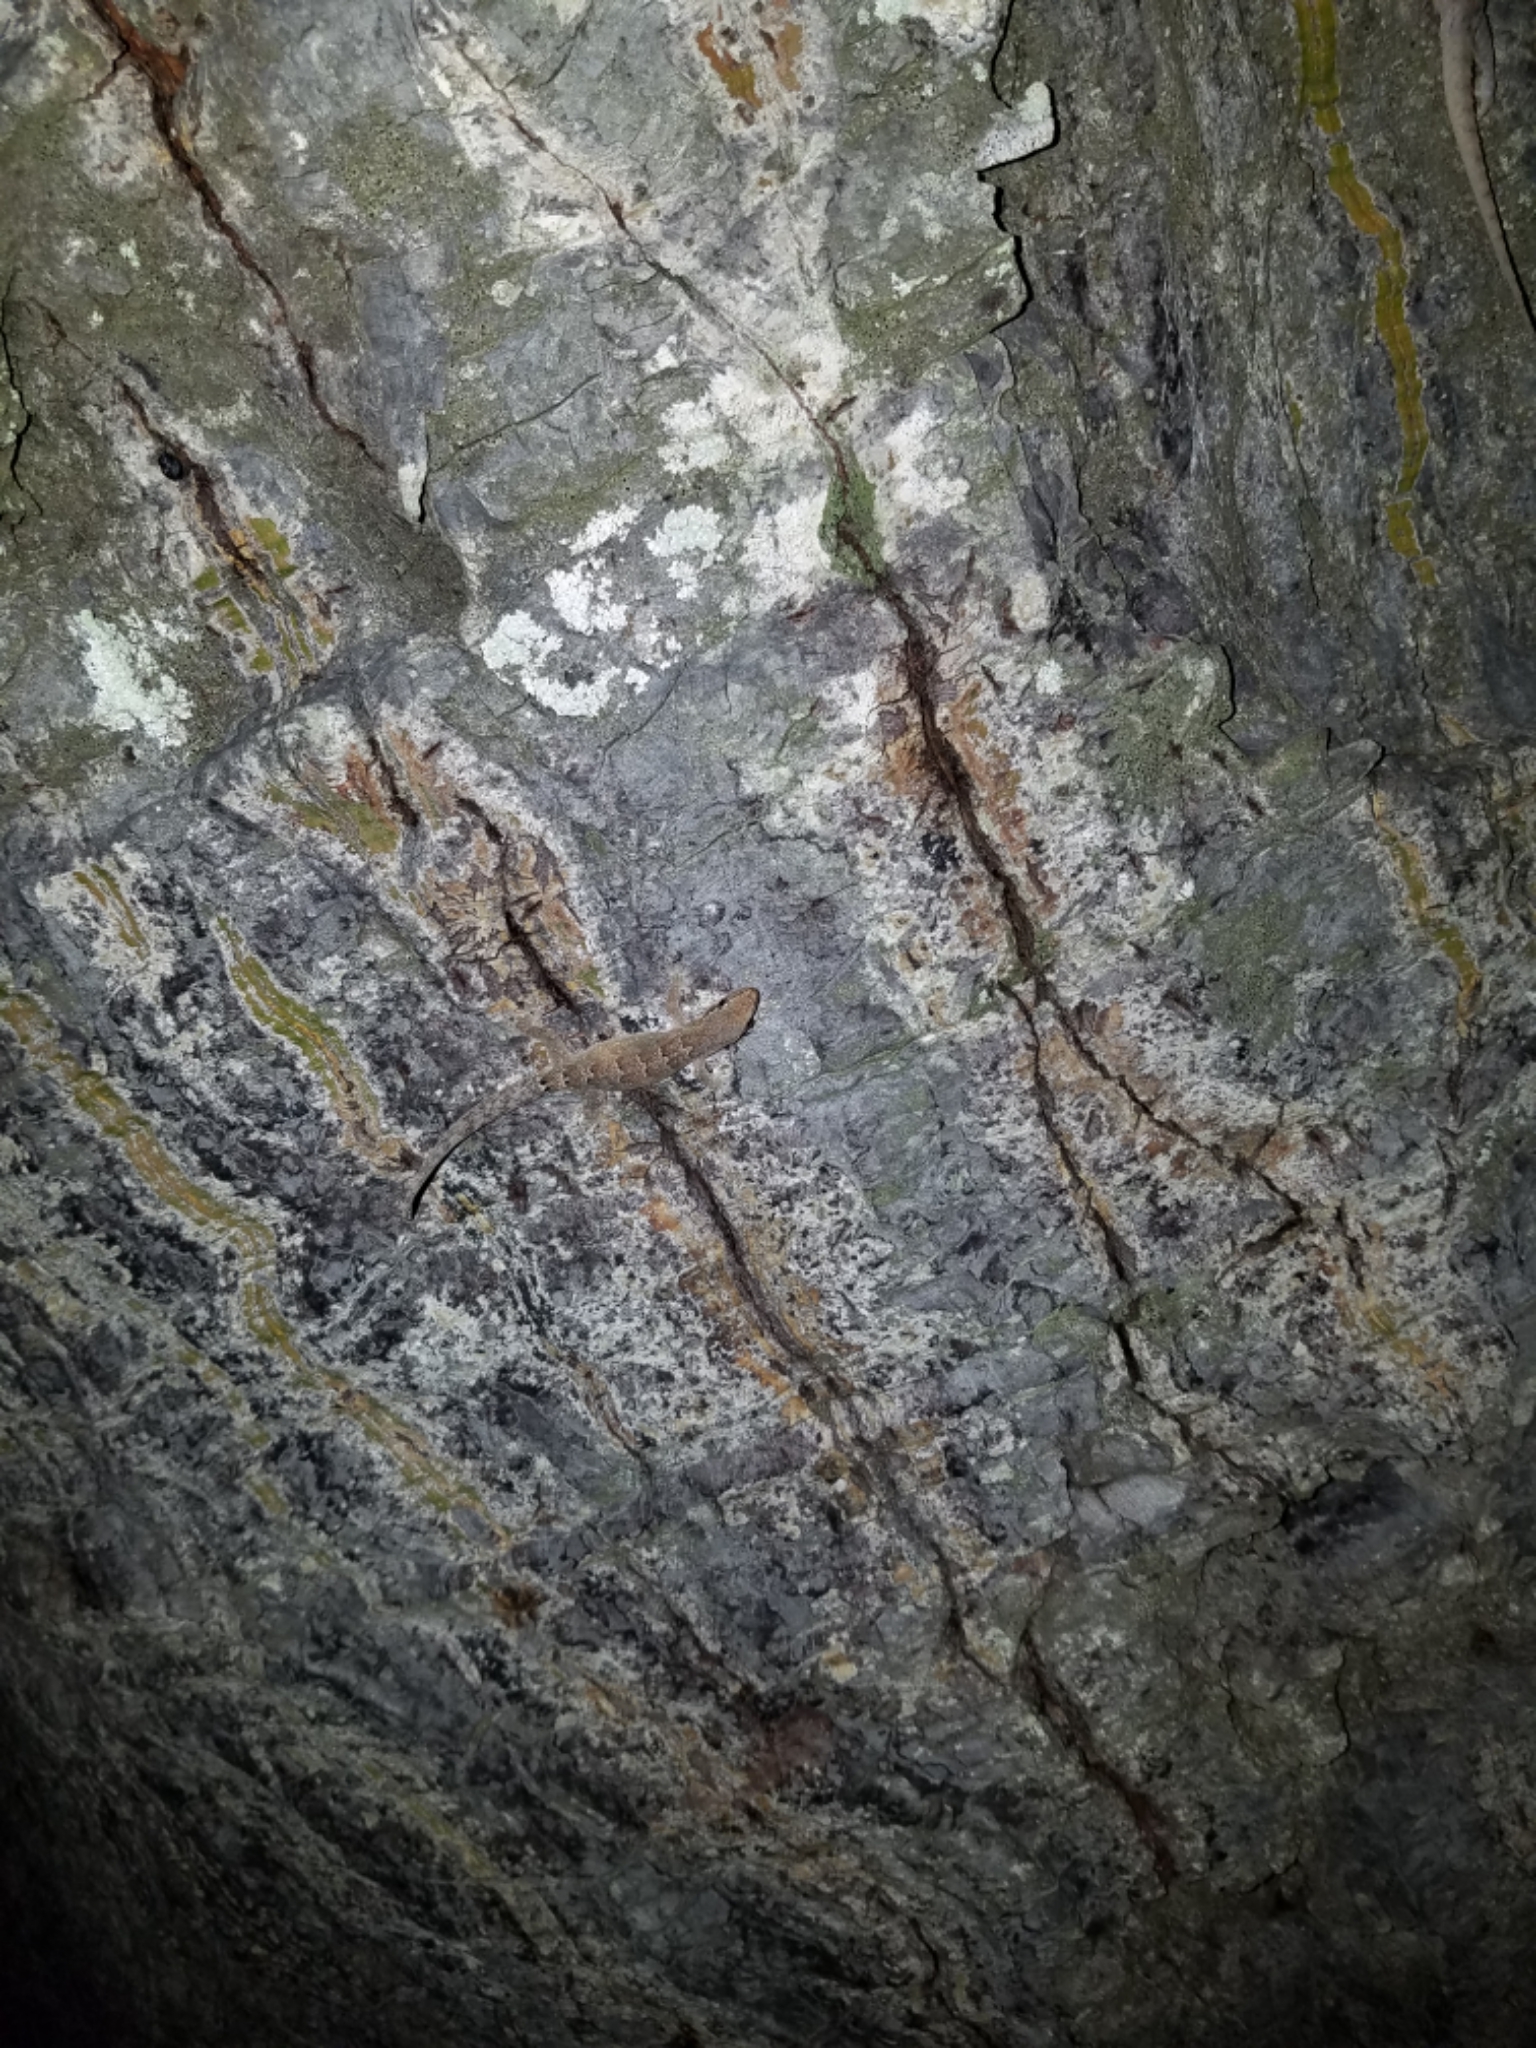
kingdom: Animalia
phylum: Chordata
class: Squamata
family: Gekkonidae
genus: Lepidodactylus
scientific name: Lepidodactylus lugubris
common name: Mourning gecko
